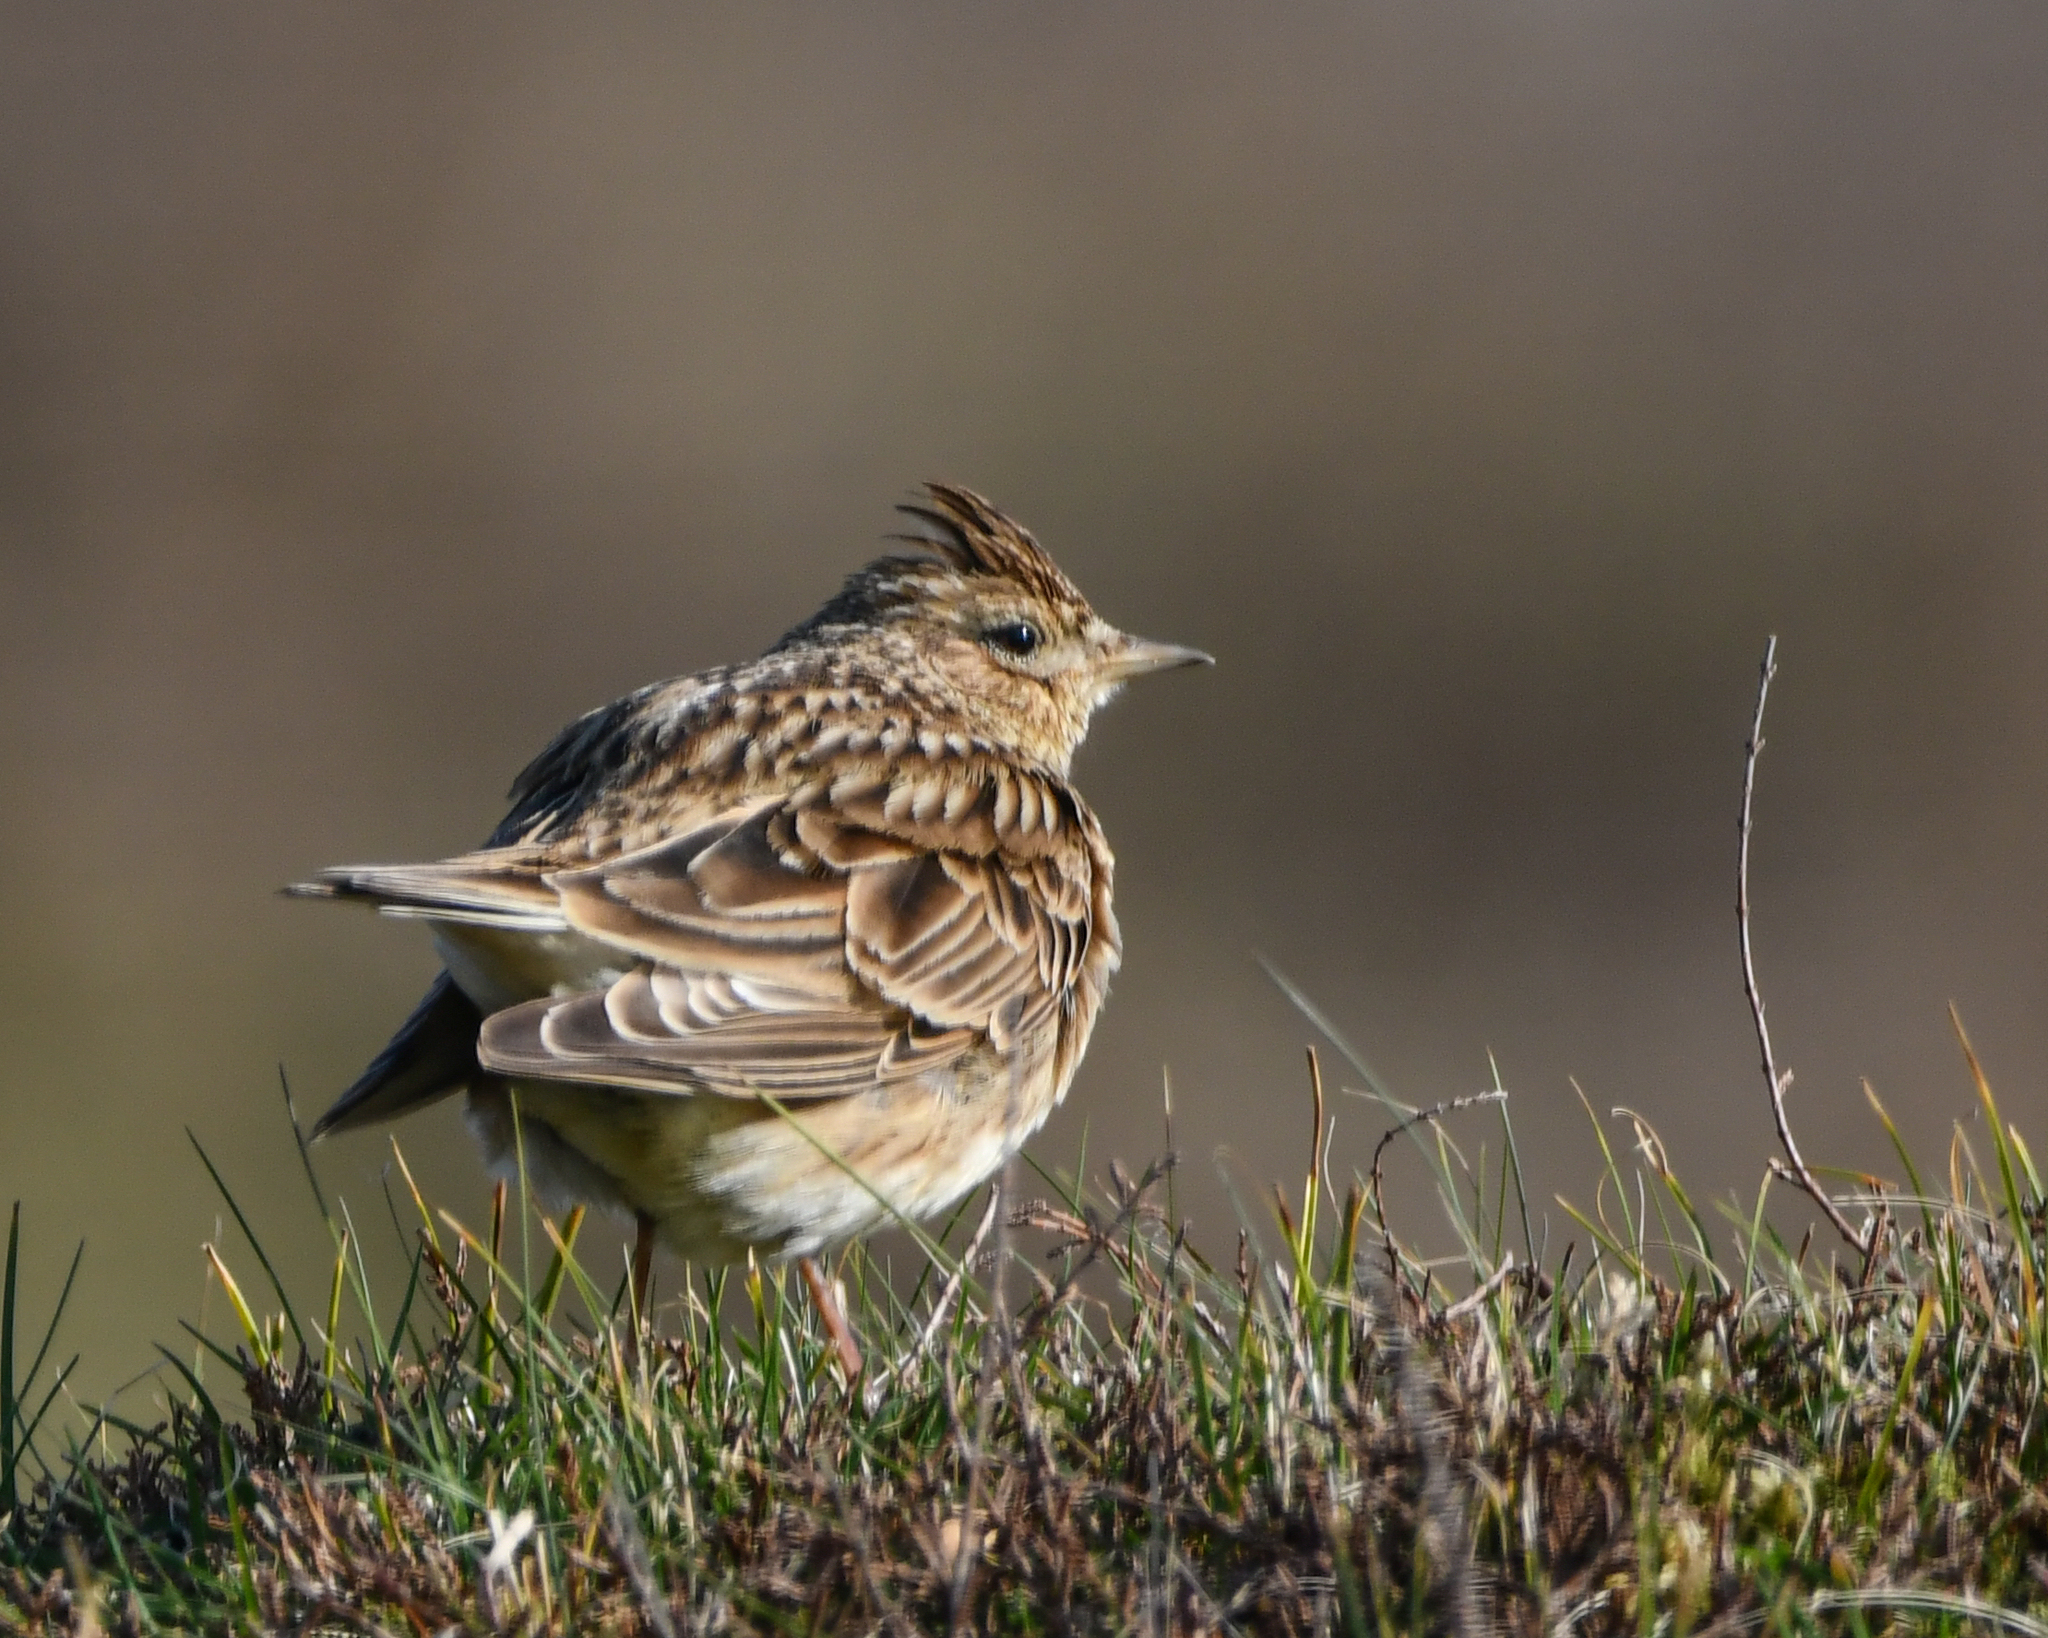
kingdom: Animalia
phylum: Chordata
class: Aves
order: Passeriformes
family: Alaudidae
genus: Alauda
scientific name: Alauda arvensis
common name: Eurasian skylark
